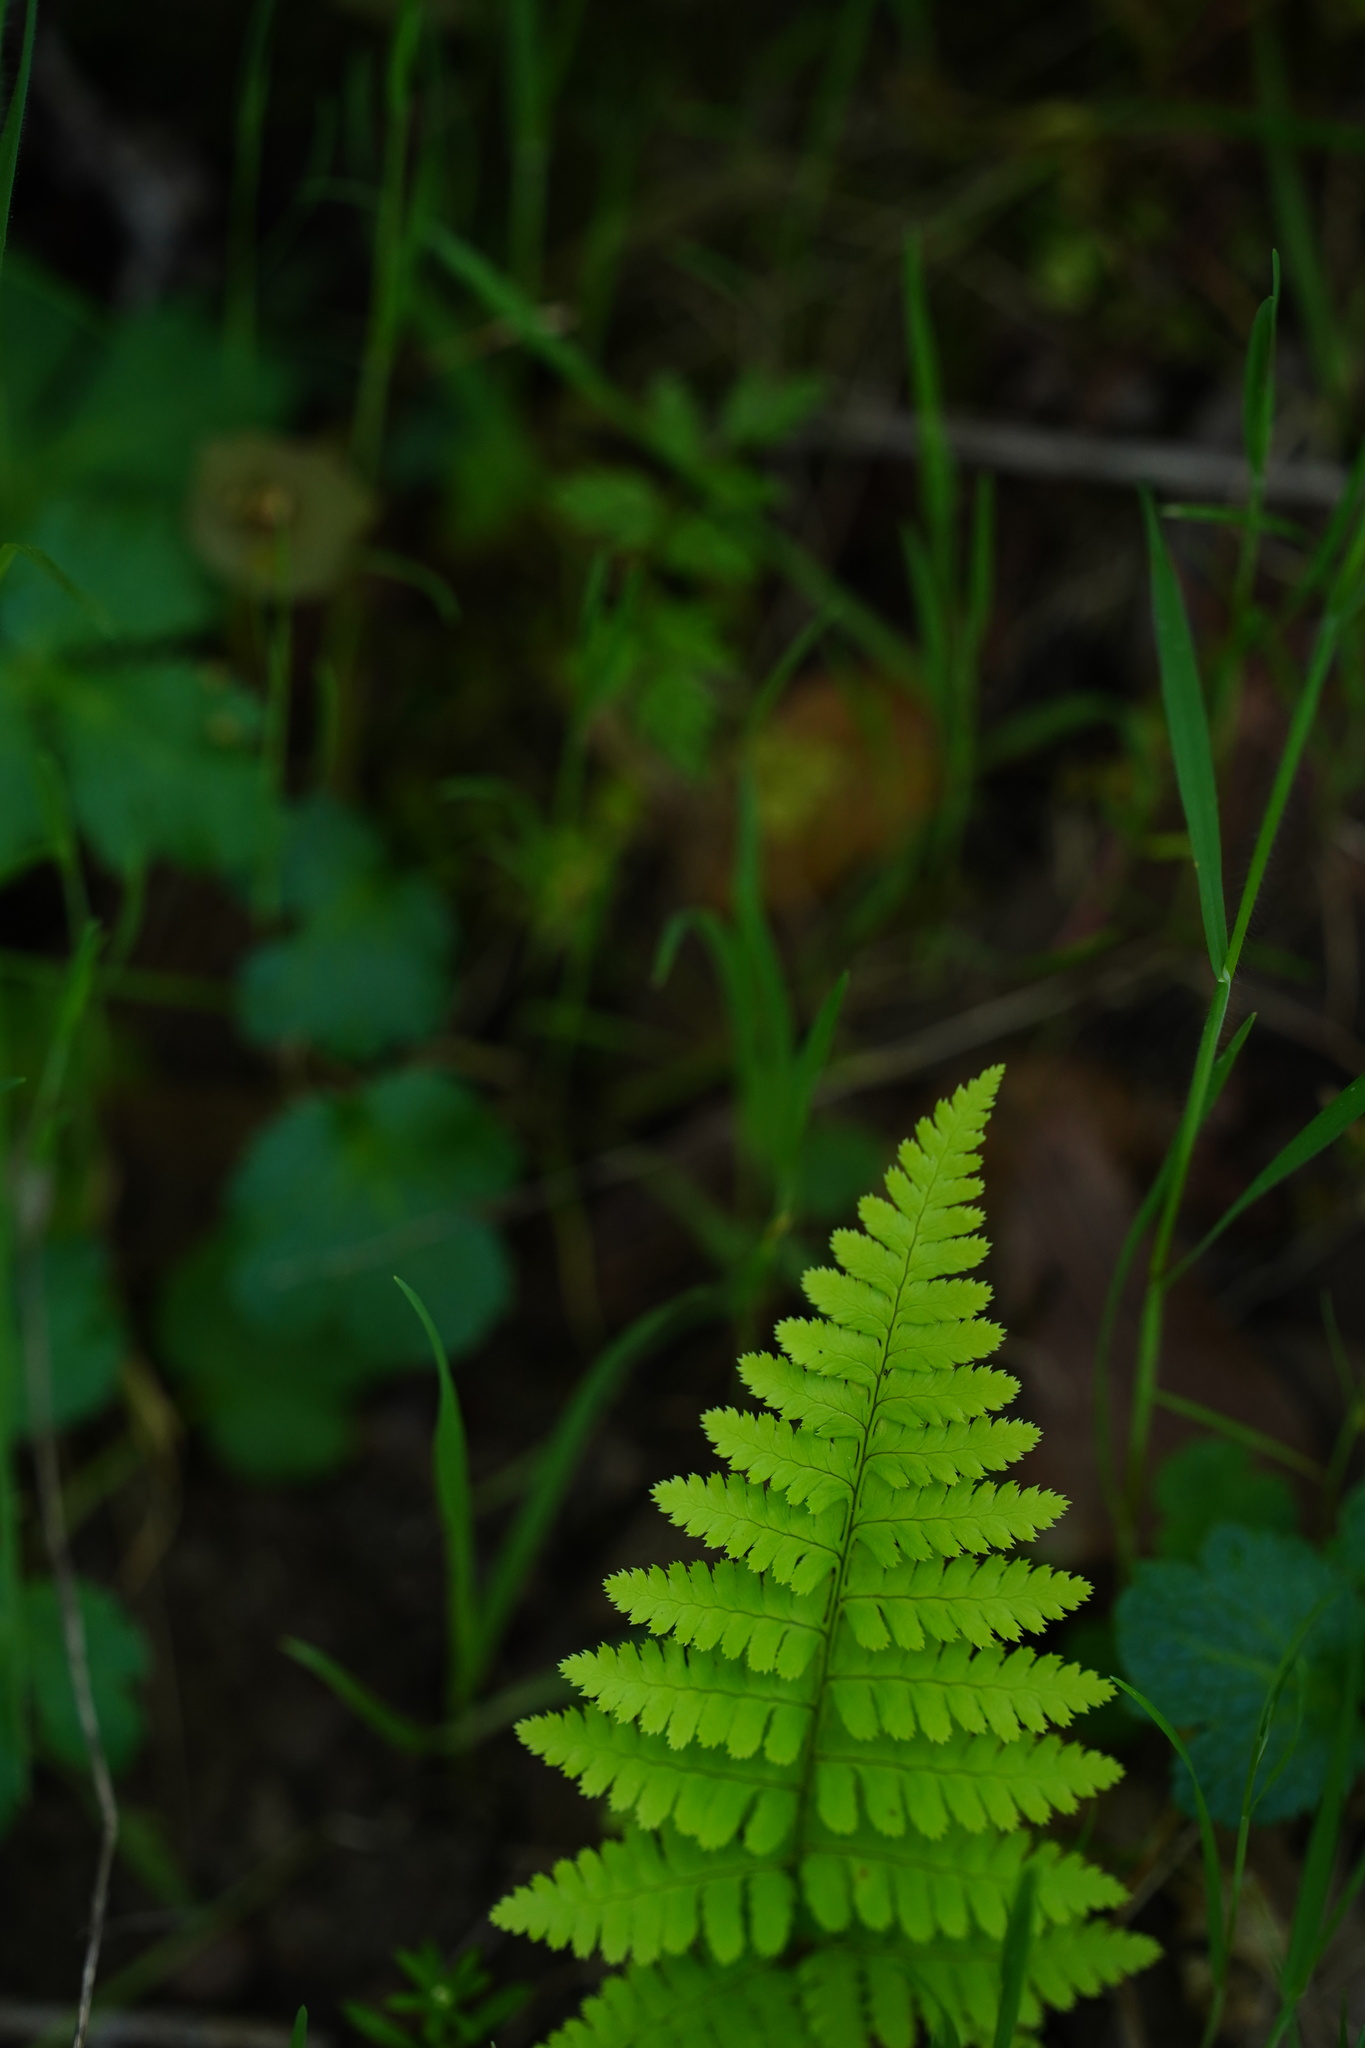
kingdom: Plantae
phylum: Tracheophyta
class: Polypodiopsida
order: Polypodiales
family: Dryopteridaceae
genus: Dryopteris
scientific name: Dryopteris arguta
